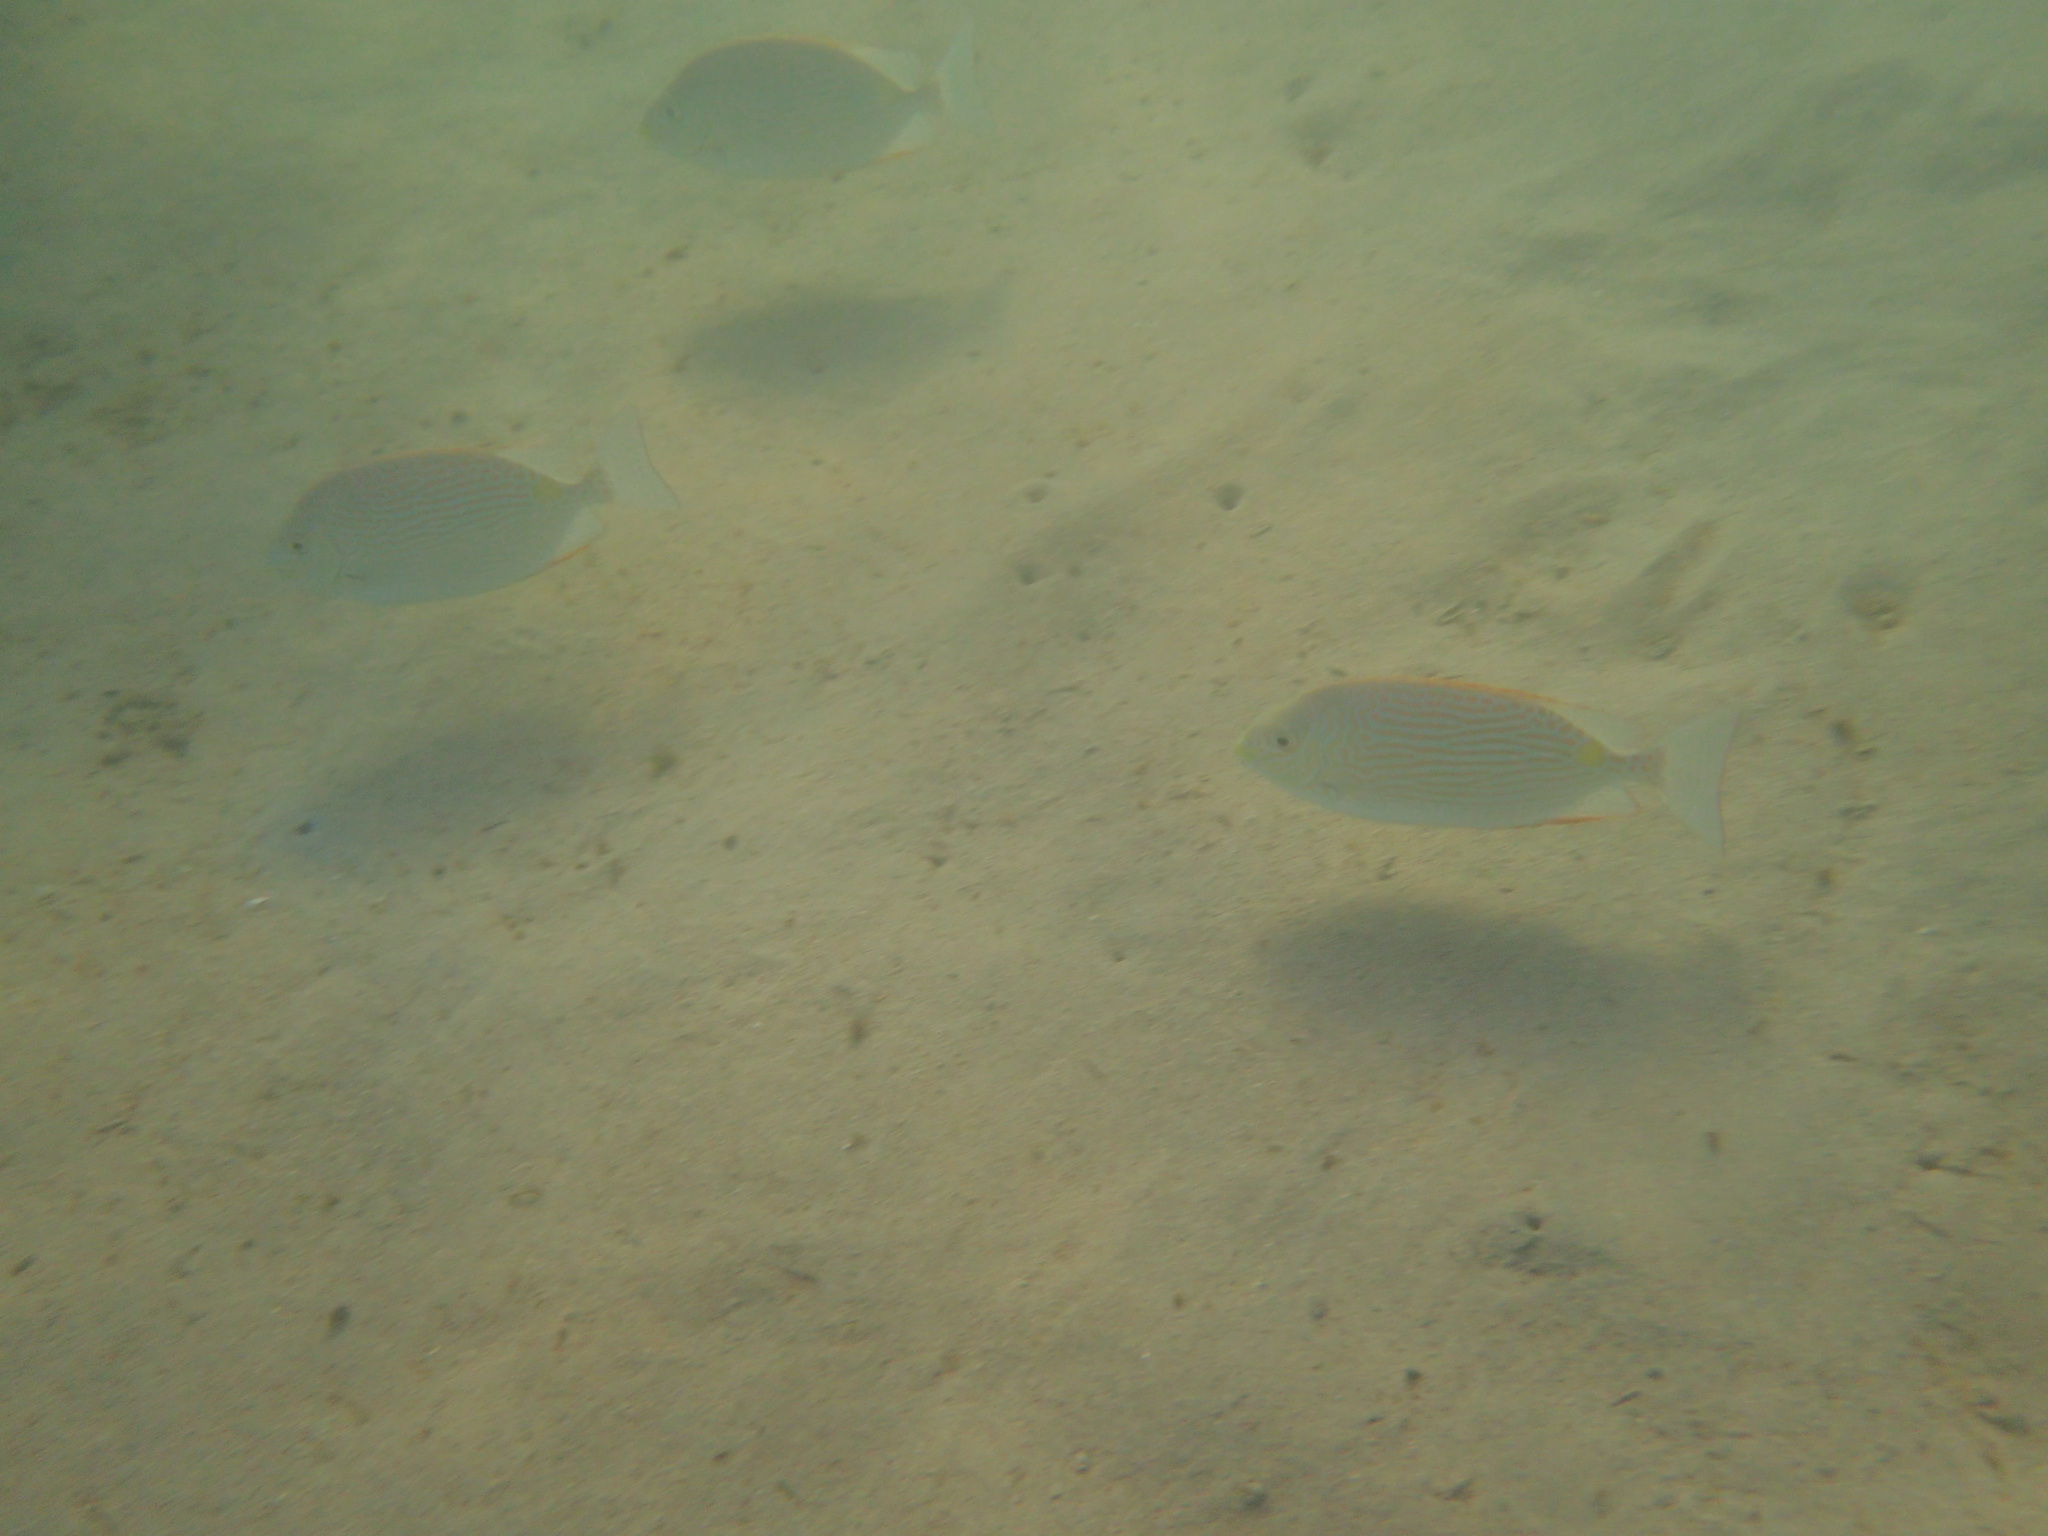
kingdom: Animalia
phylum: Chordata
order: Perciformes
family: Siganidae
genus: Siganus
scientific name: Siganus lineatus
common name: Lined rabbitfish
